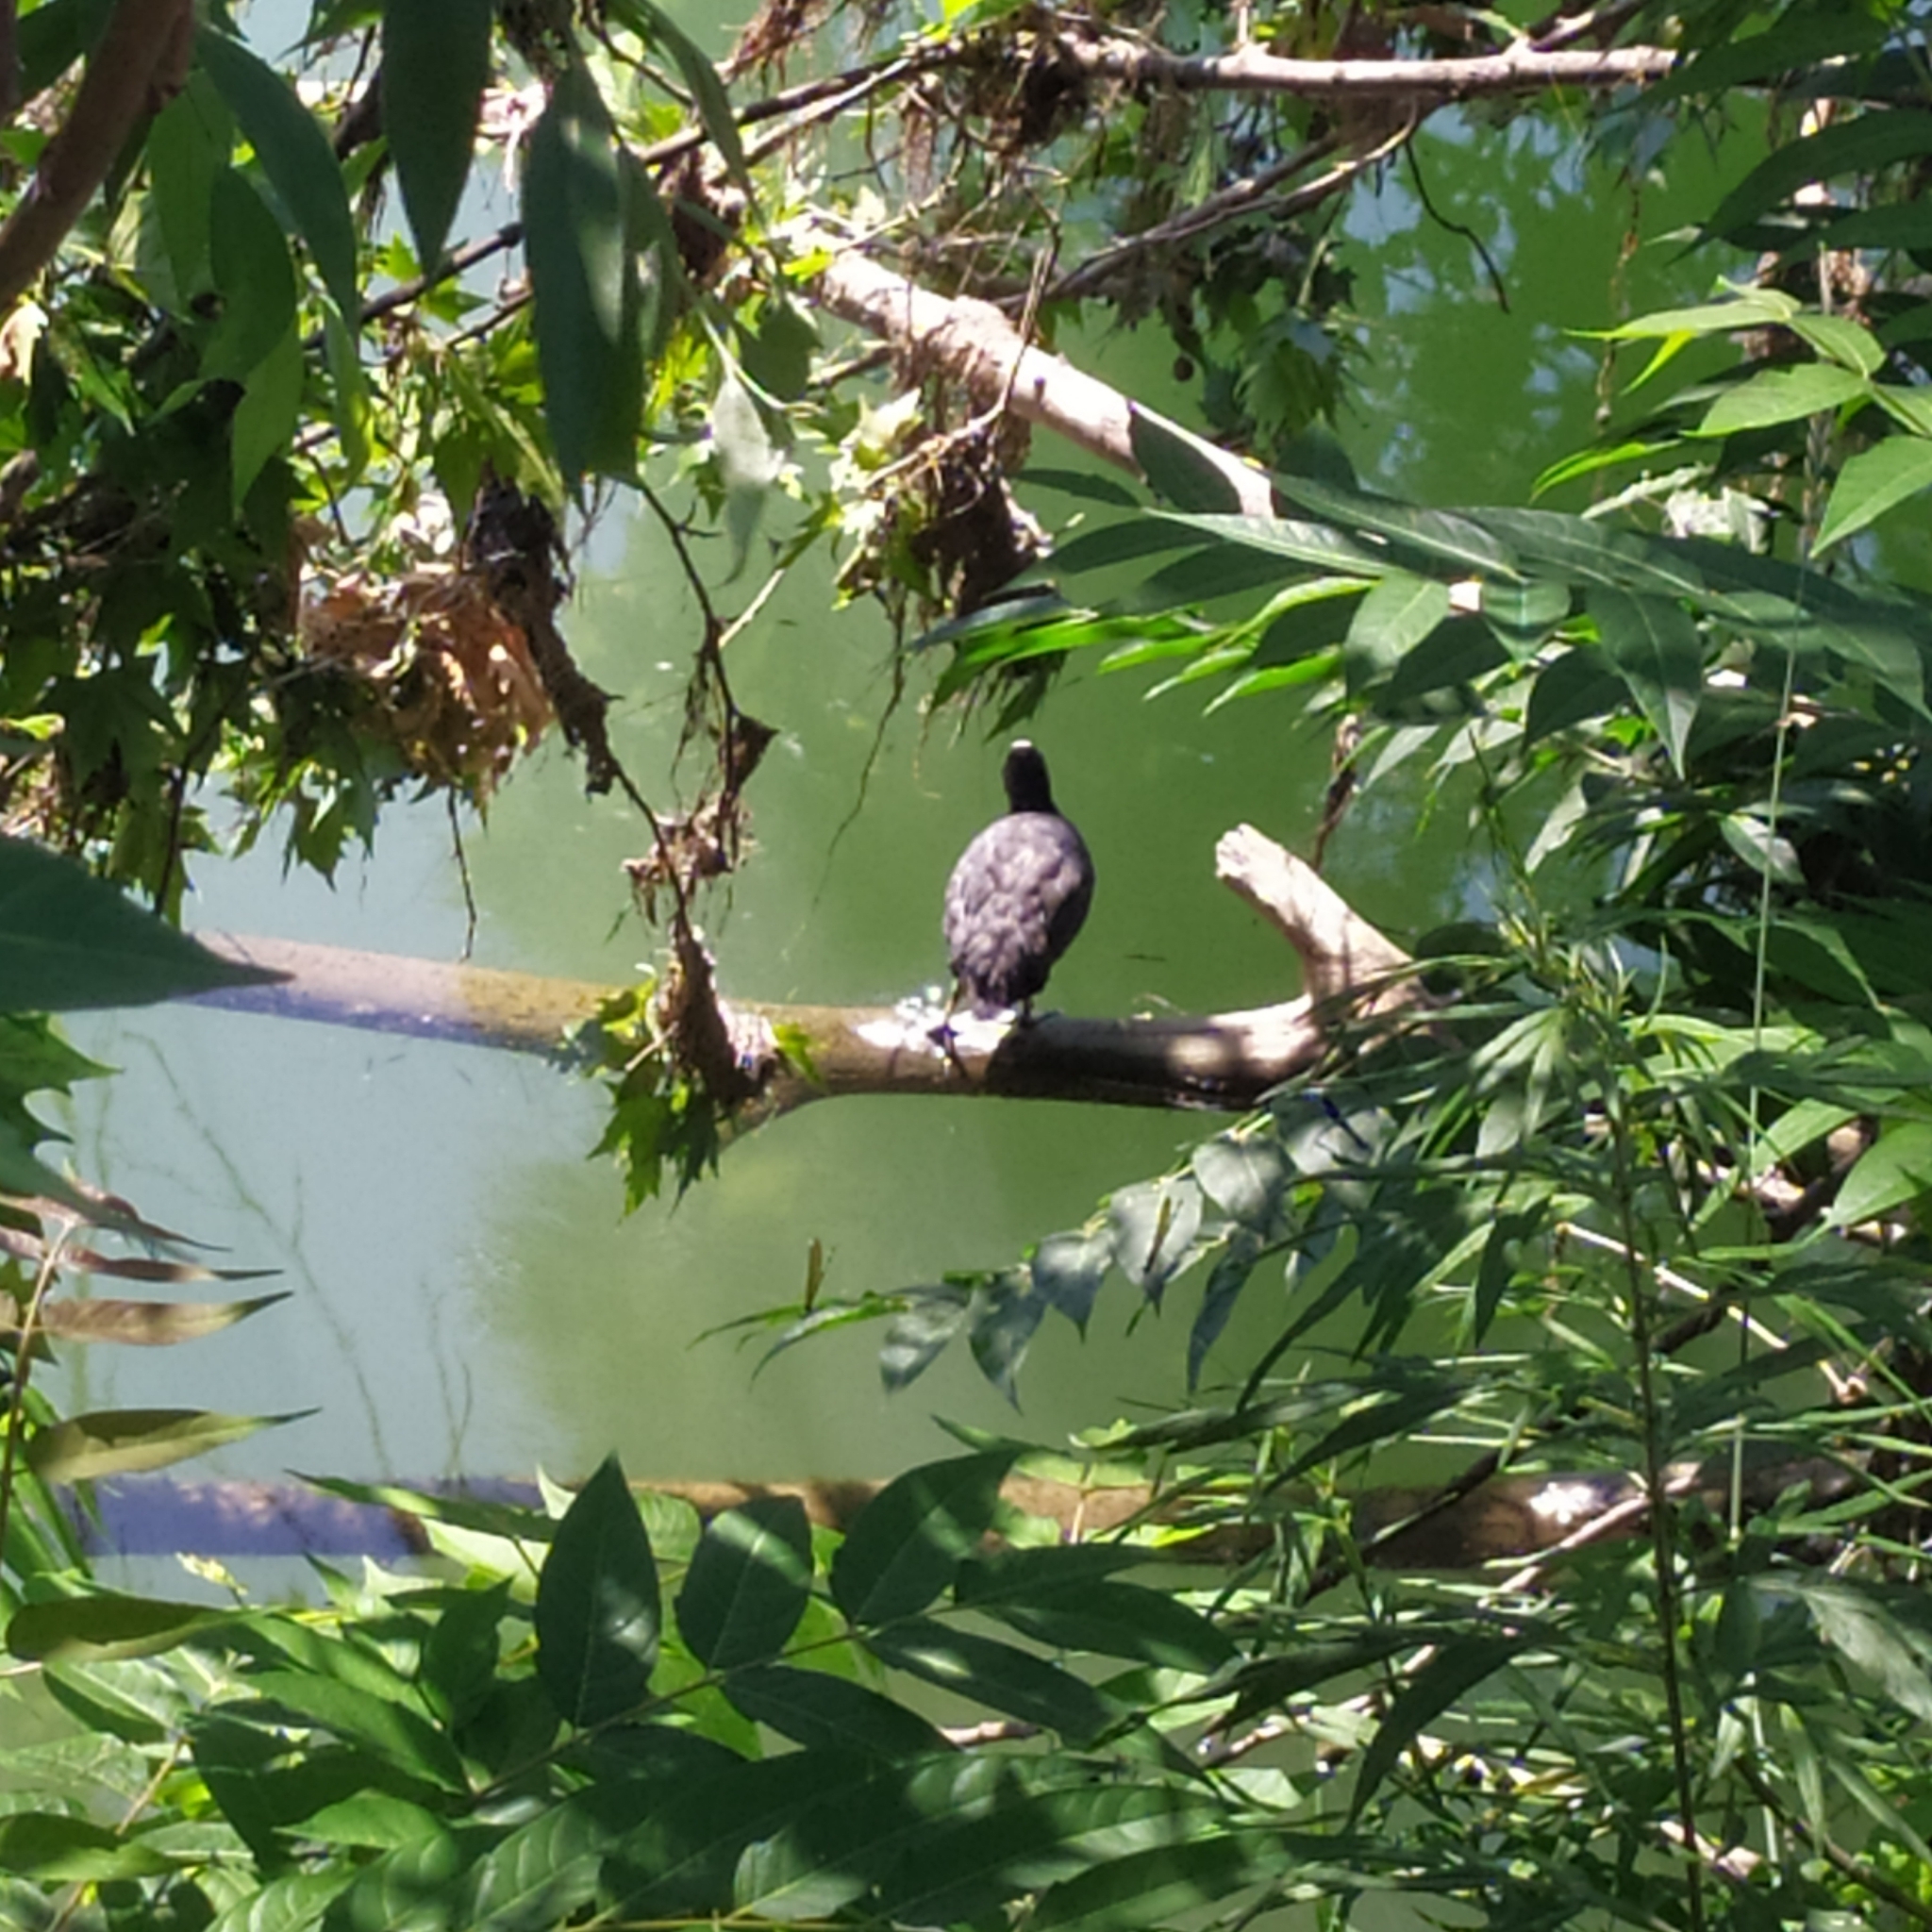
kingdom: Animalia
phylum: Chordata
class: Aves
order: Gruiformes
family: Rallidae
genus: Fulica
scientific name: Fulica atra
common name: Eurasian coot
